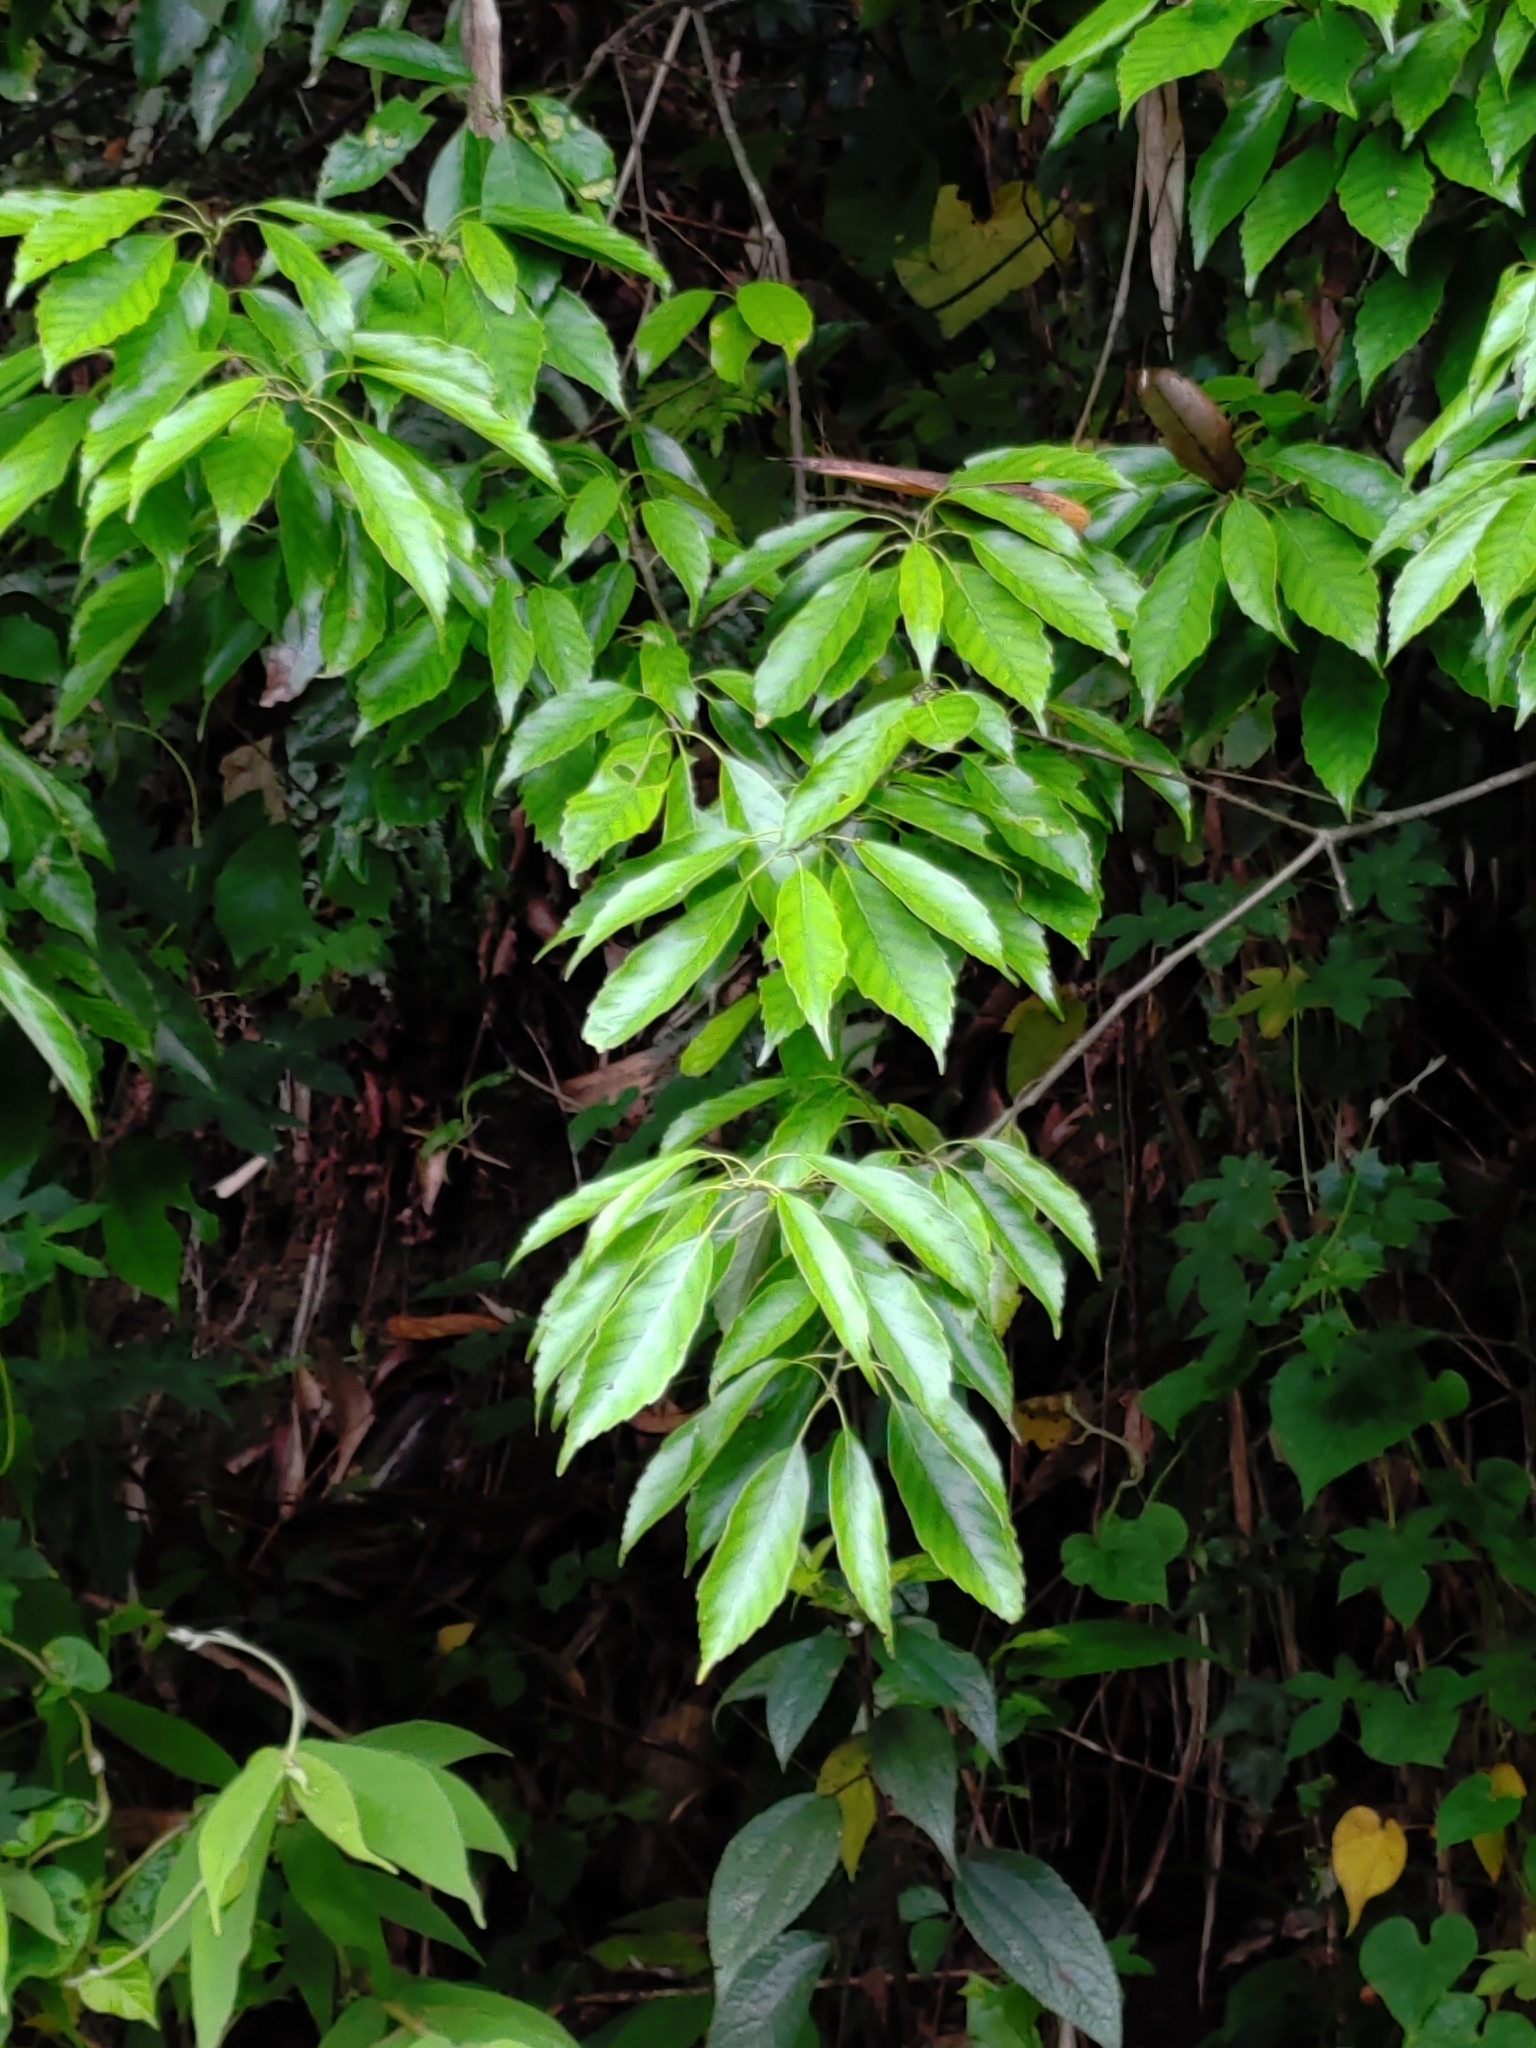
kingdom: Plantae
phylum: Tracheophyta
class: Magnoliopsida
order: Fagales
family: Fagaceae
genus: Quercus
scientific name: Quercus glauca
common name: Ring-cup oak
